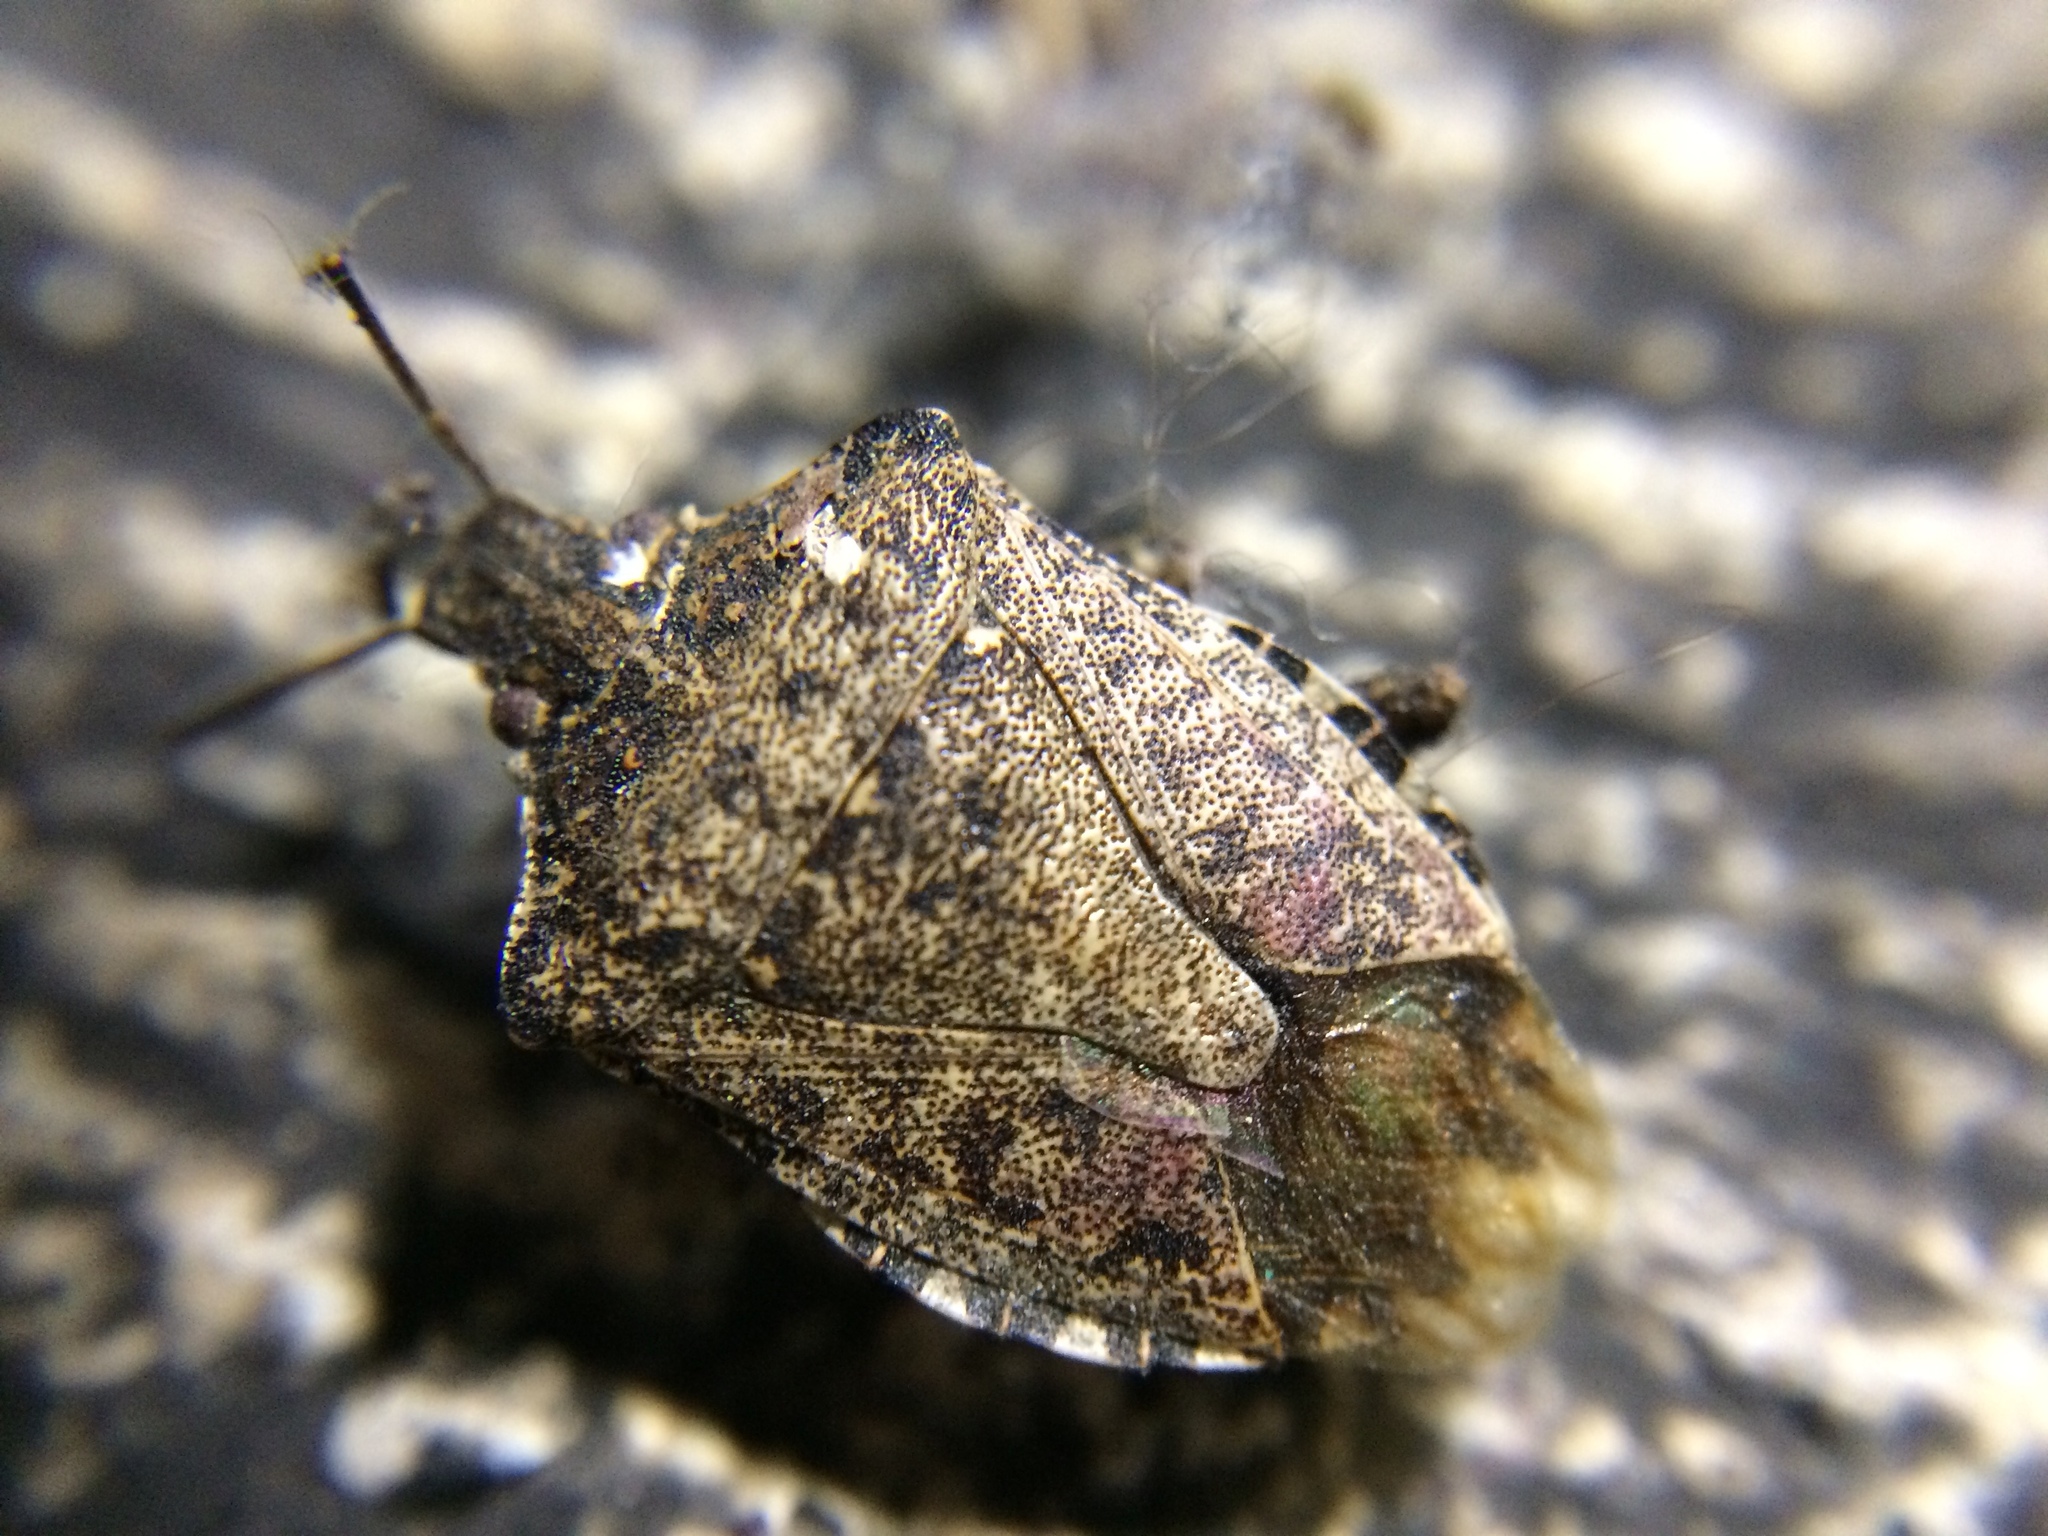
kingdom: Animalia
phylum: Arthropoda
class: Insecta
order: Hemiptera
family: Pentatomidae
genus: Halyomorpha
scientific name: Halyomorpha halys
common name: Brown marmorated stink bug
